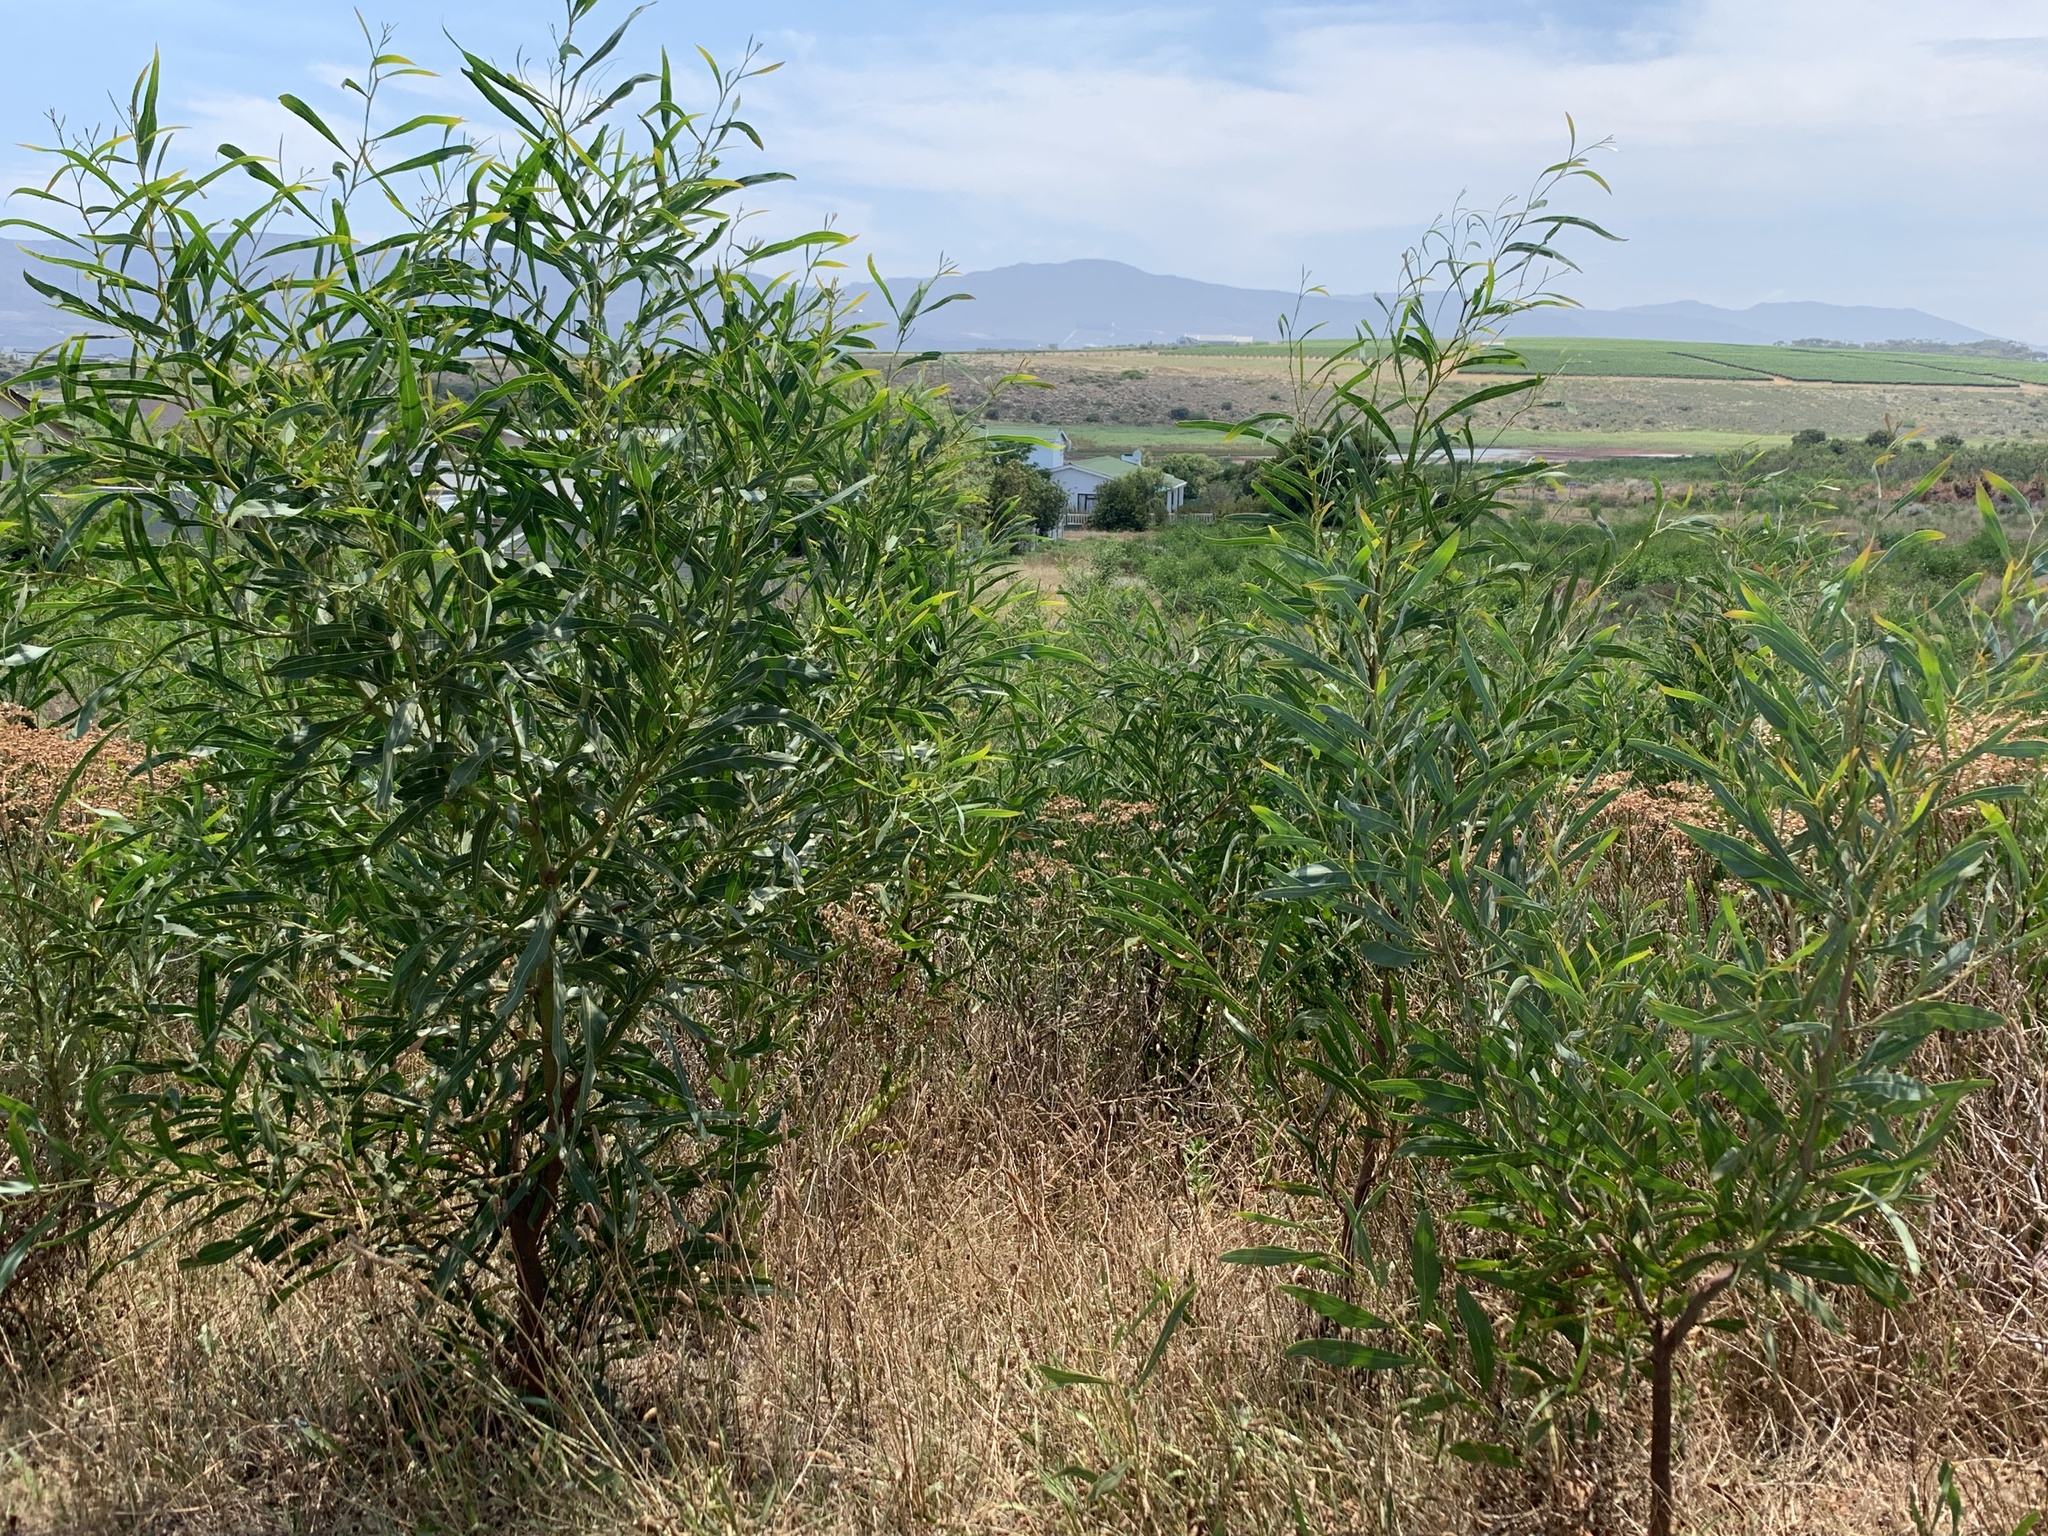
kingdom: Plantae
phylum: Tracheophyta
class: Magnoliopsida
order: Fabales
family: Fabaceae
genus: Acacia
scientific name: Acacia saligna
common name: Orange wattle
